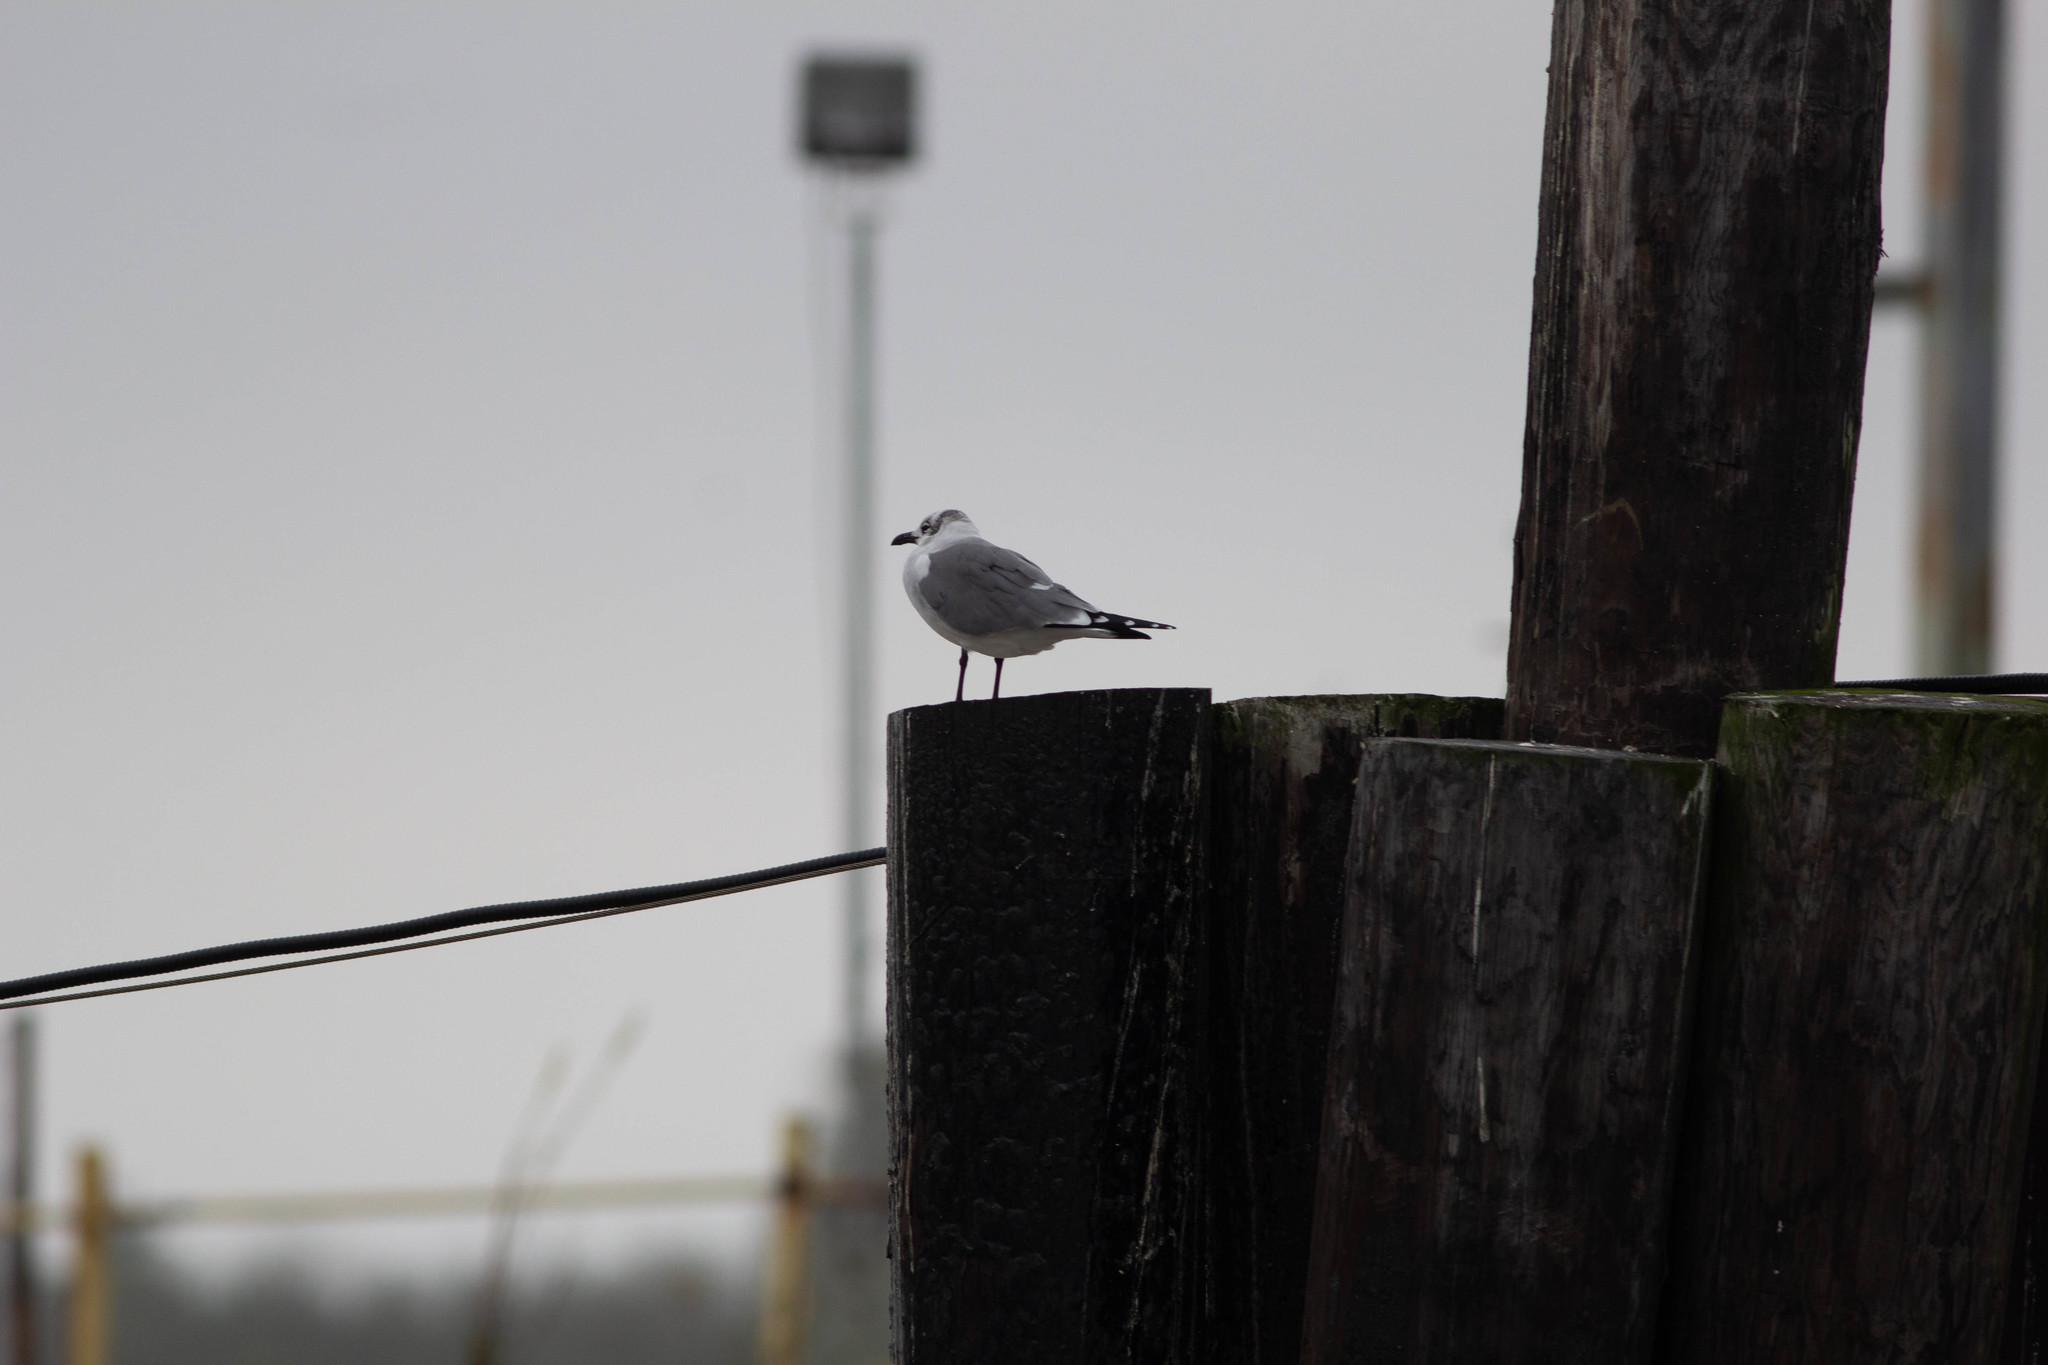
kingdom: Animalia
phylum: Chordata
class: Aves
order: Charadriiformes
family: Laridae
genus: Leucophaeus
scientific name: Leucophaeus atricilla
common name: Laughing gull
